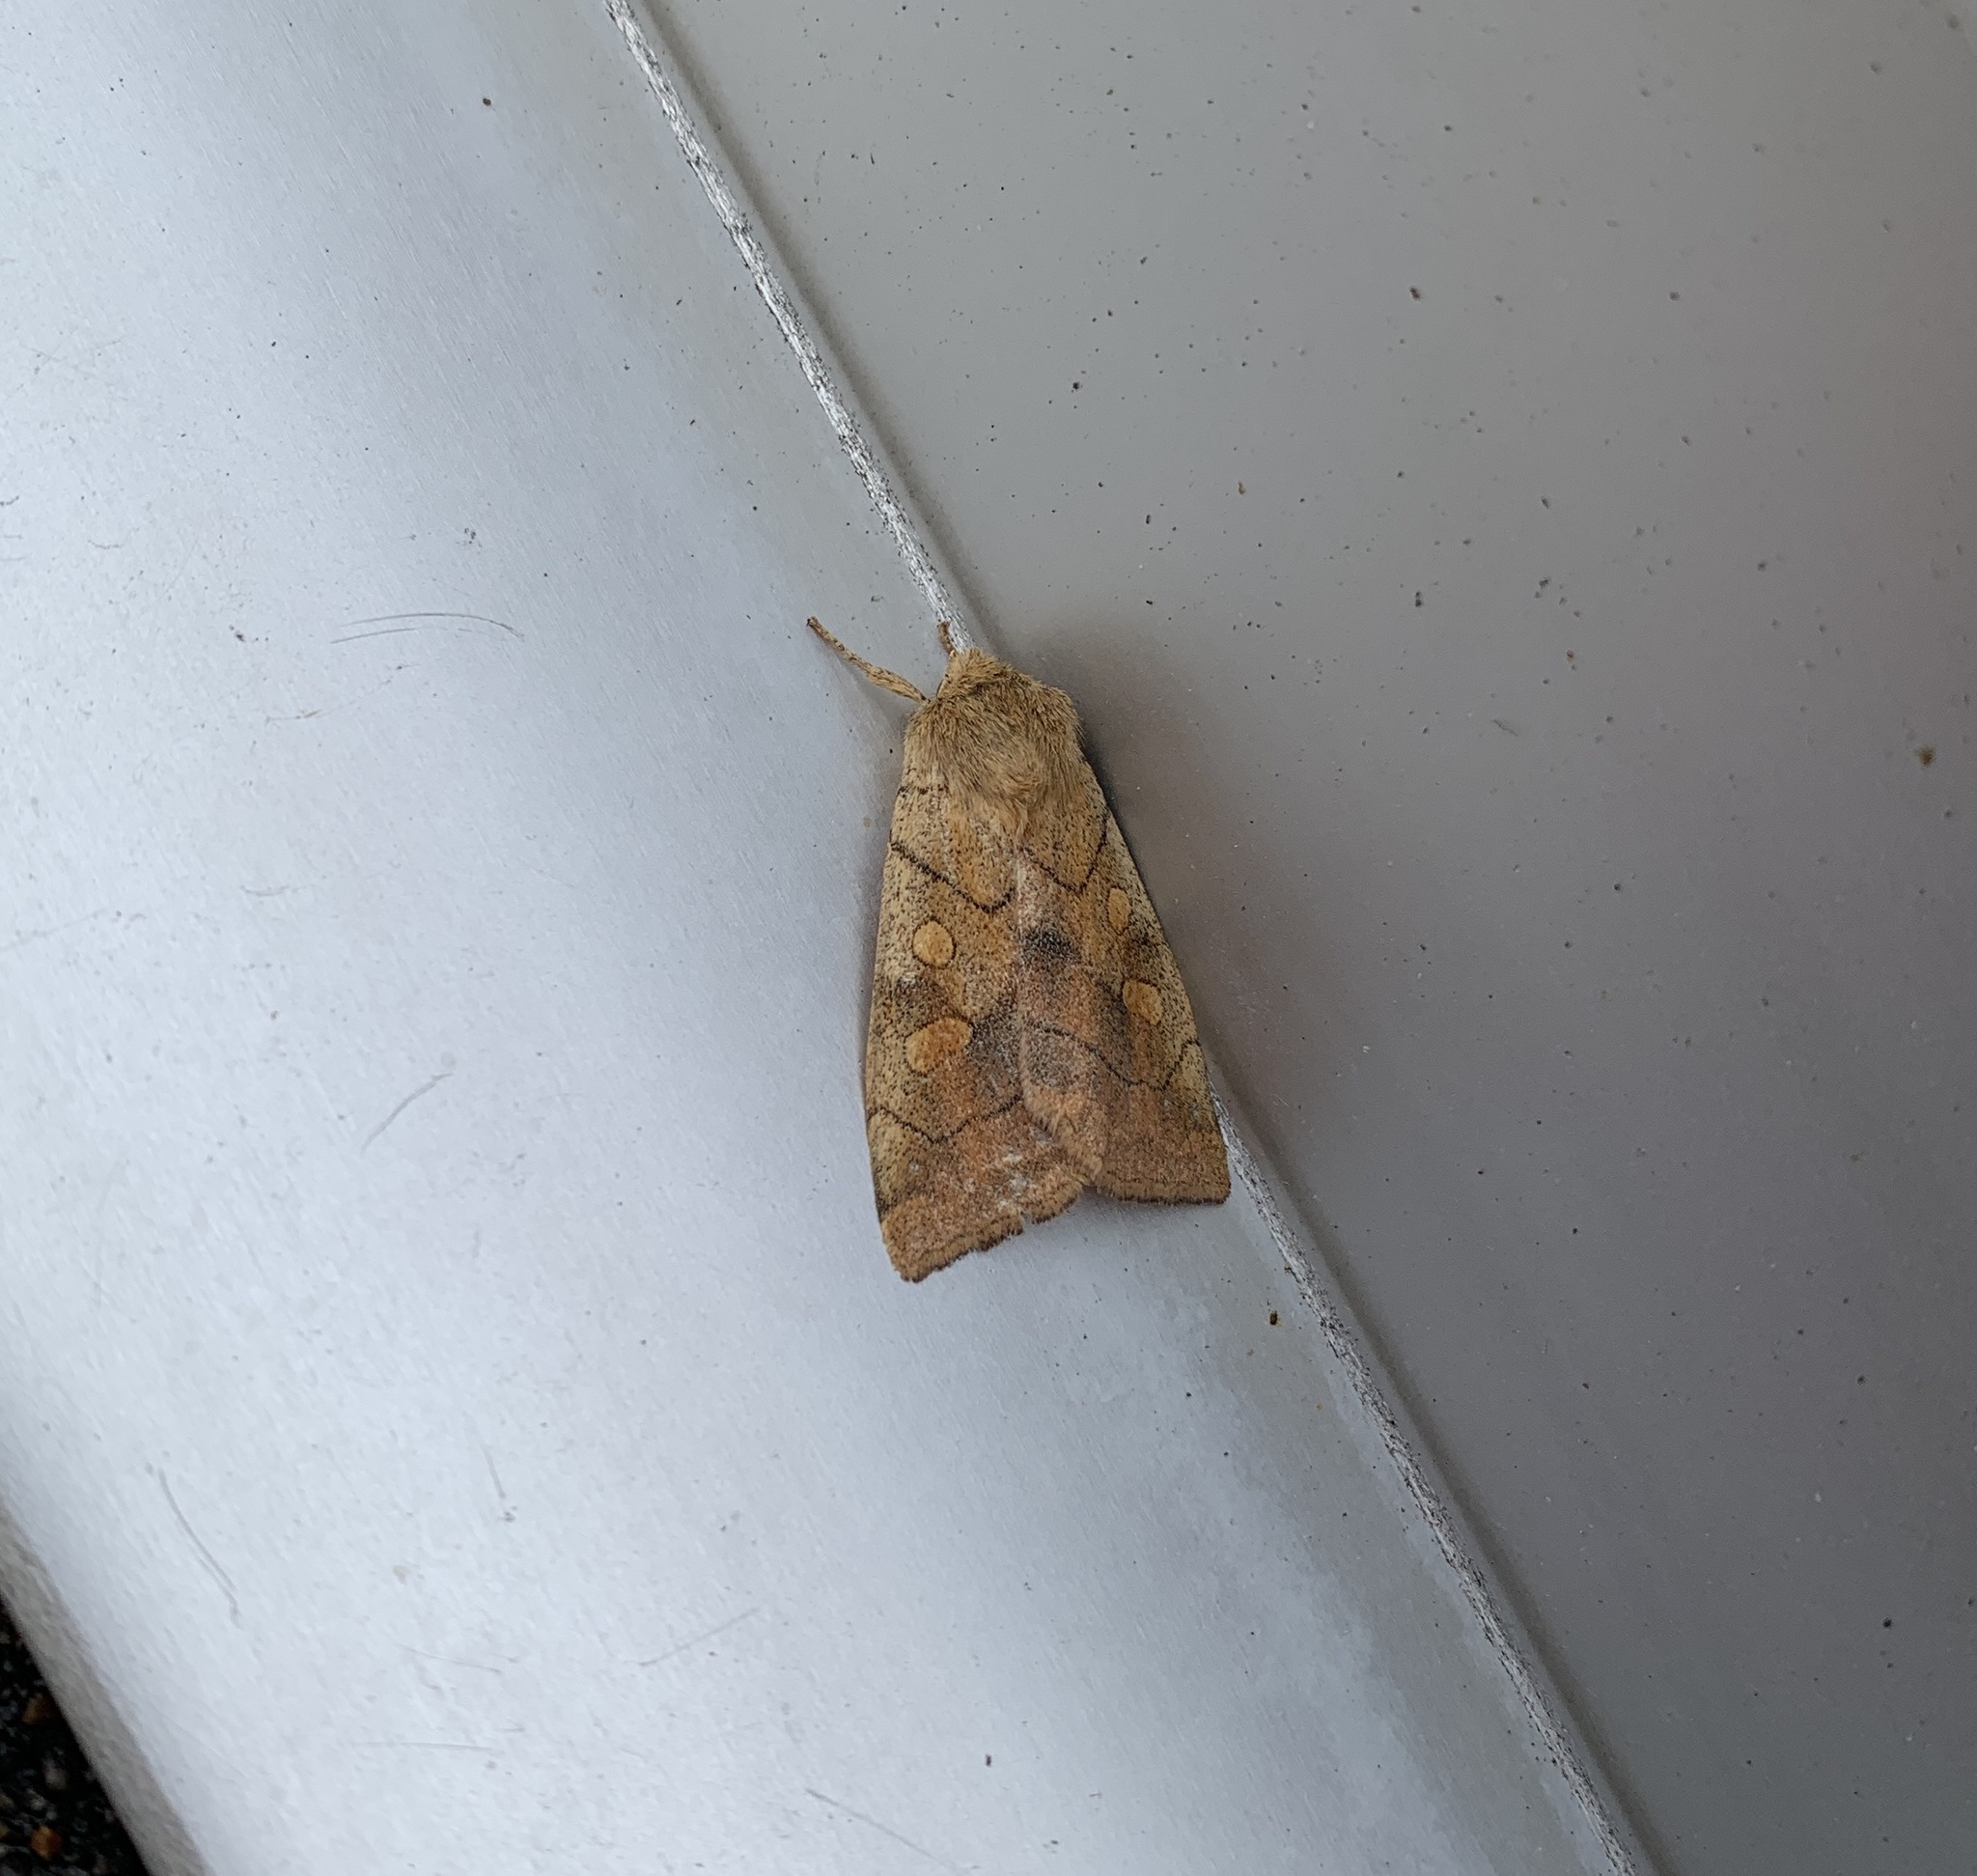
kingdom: Animalia
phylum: Arthropoda
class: Insecta
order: Lepidoptera
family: Noctuidae
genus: Enargia
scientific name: Enargia decolor
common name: Aspen twoleaf tier moth
